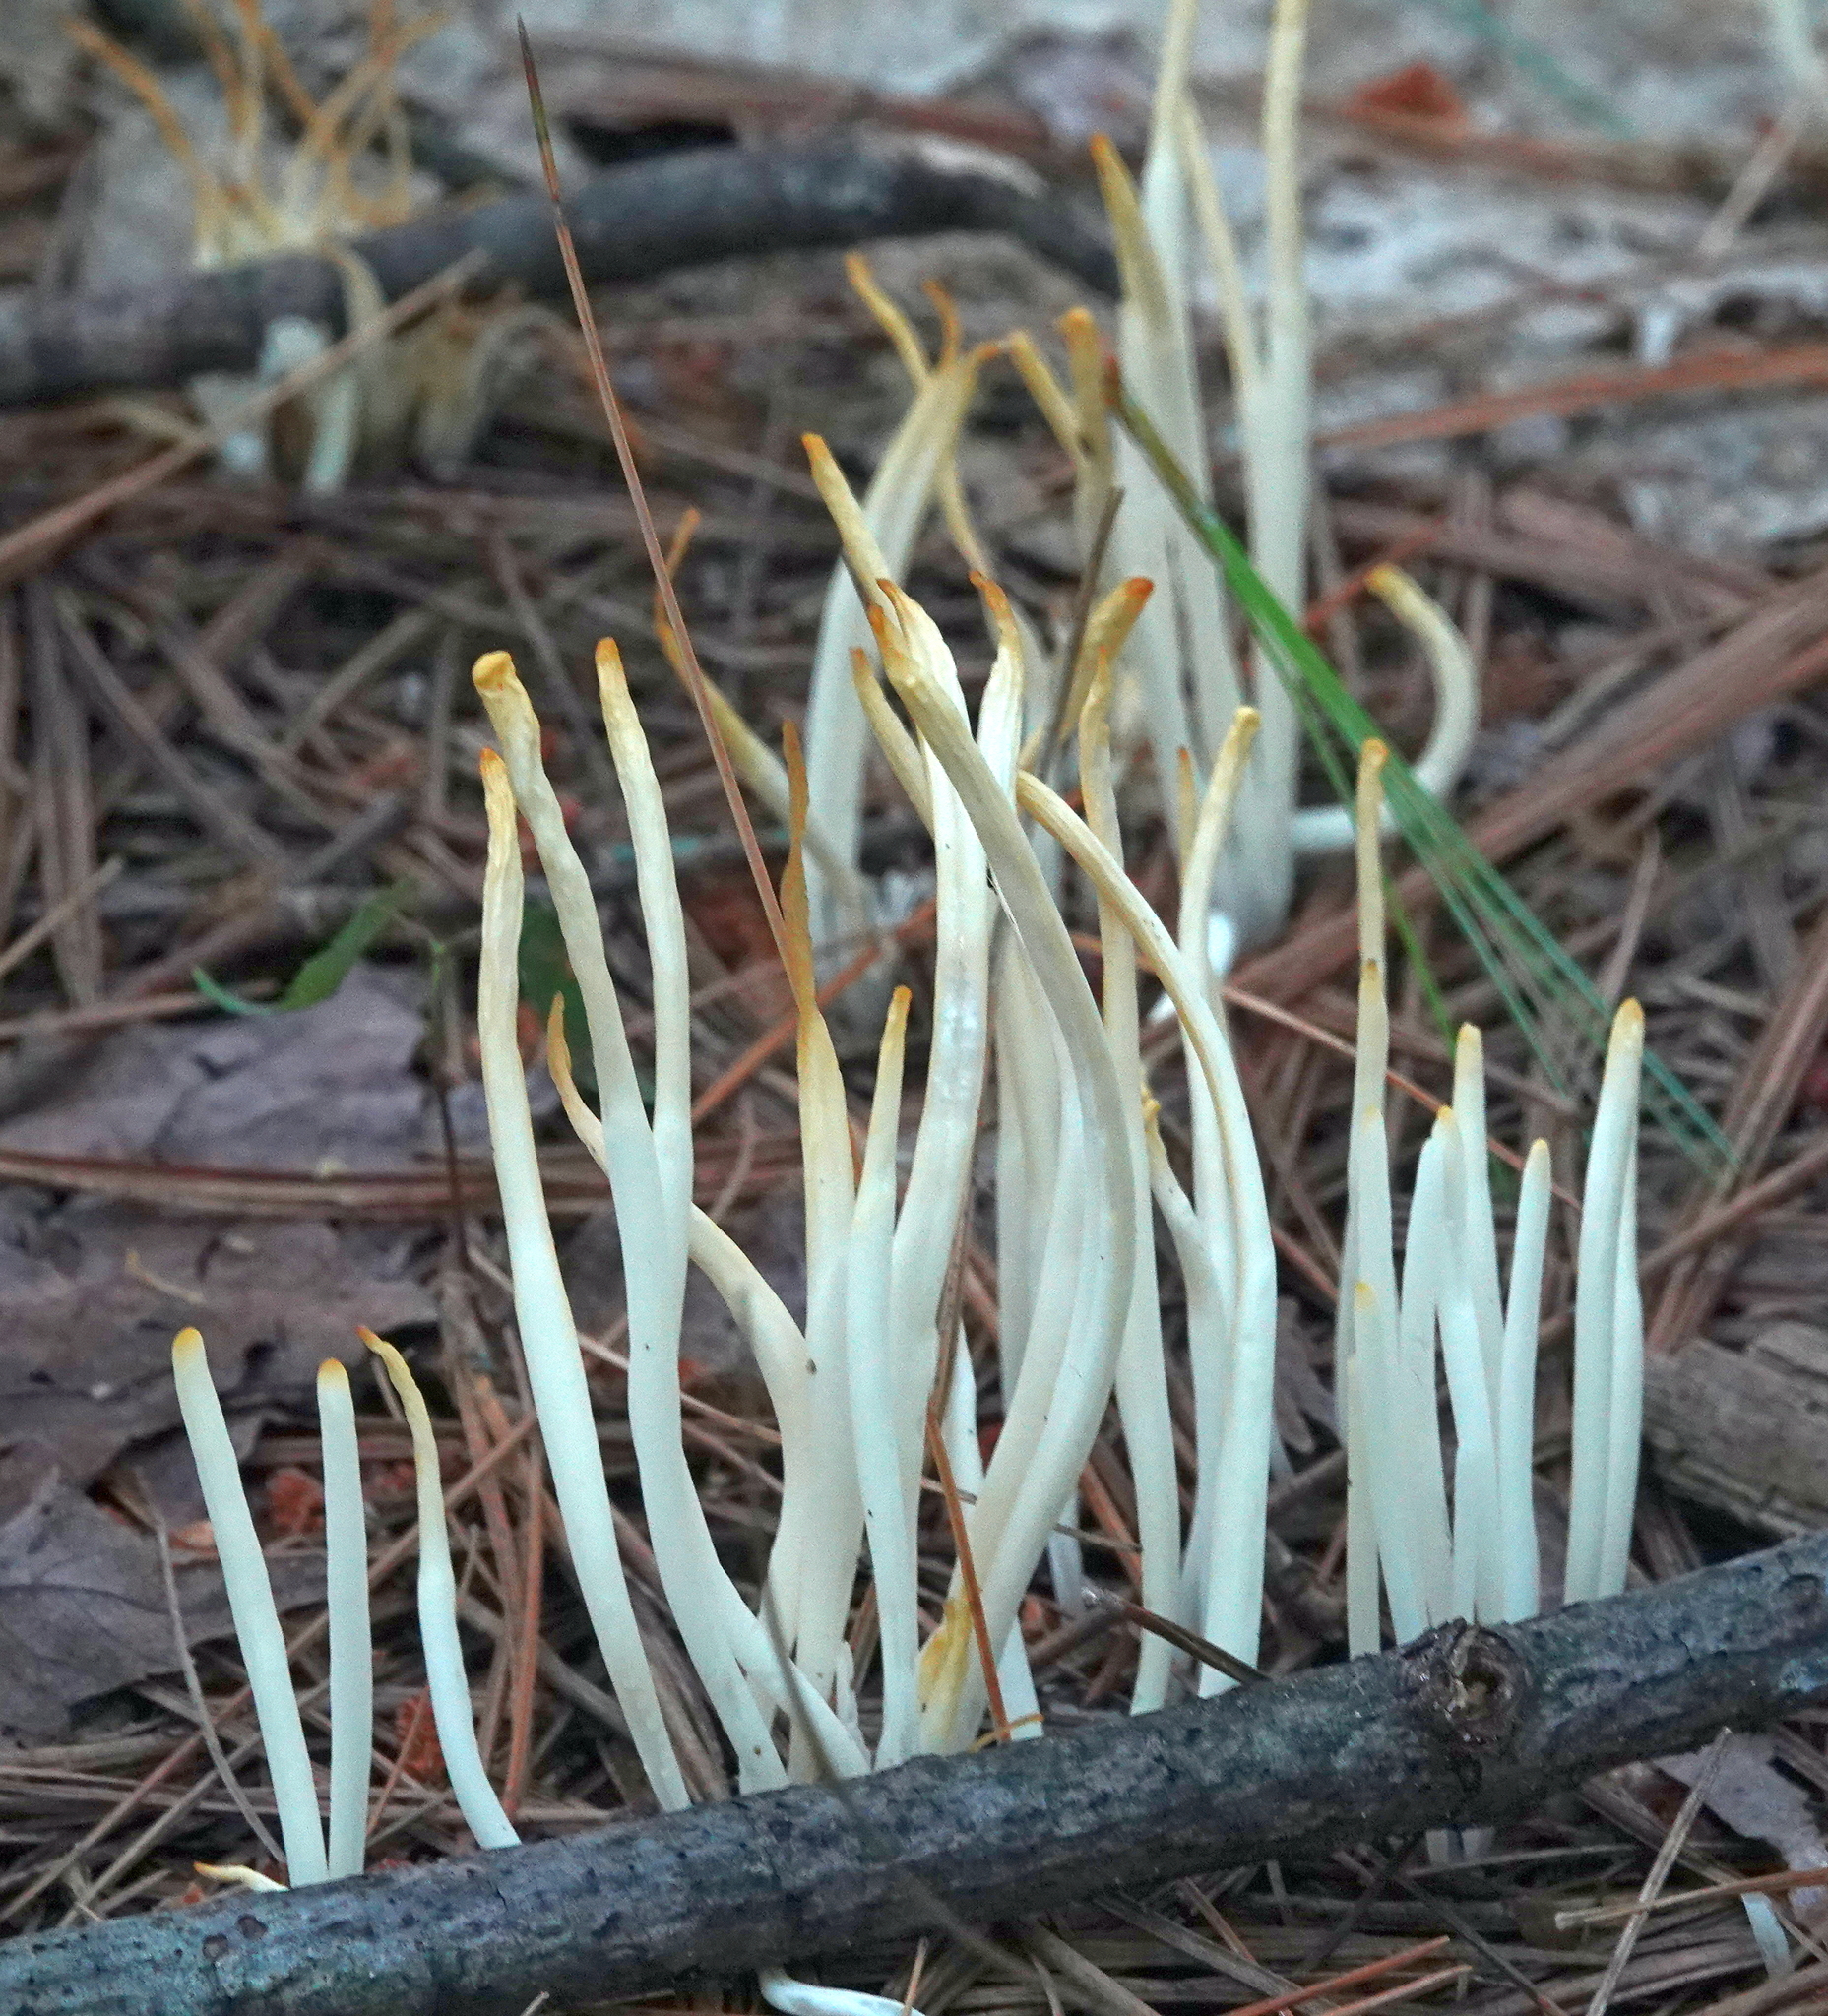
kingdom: Fungi
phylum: Basidiomycota
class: Agaricomycetes
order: Agaricales
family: Clavariaceae
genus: Clavaria
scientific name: Clavaria fragilis
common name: White spindles
